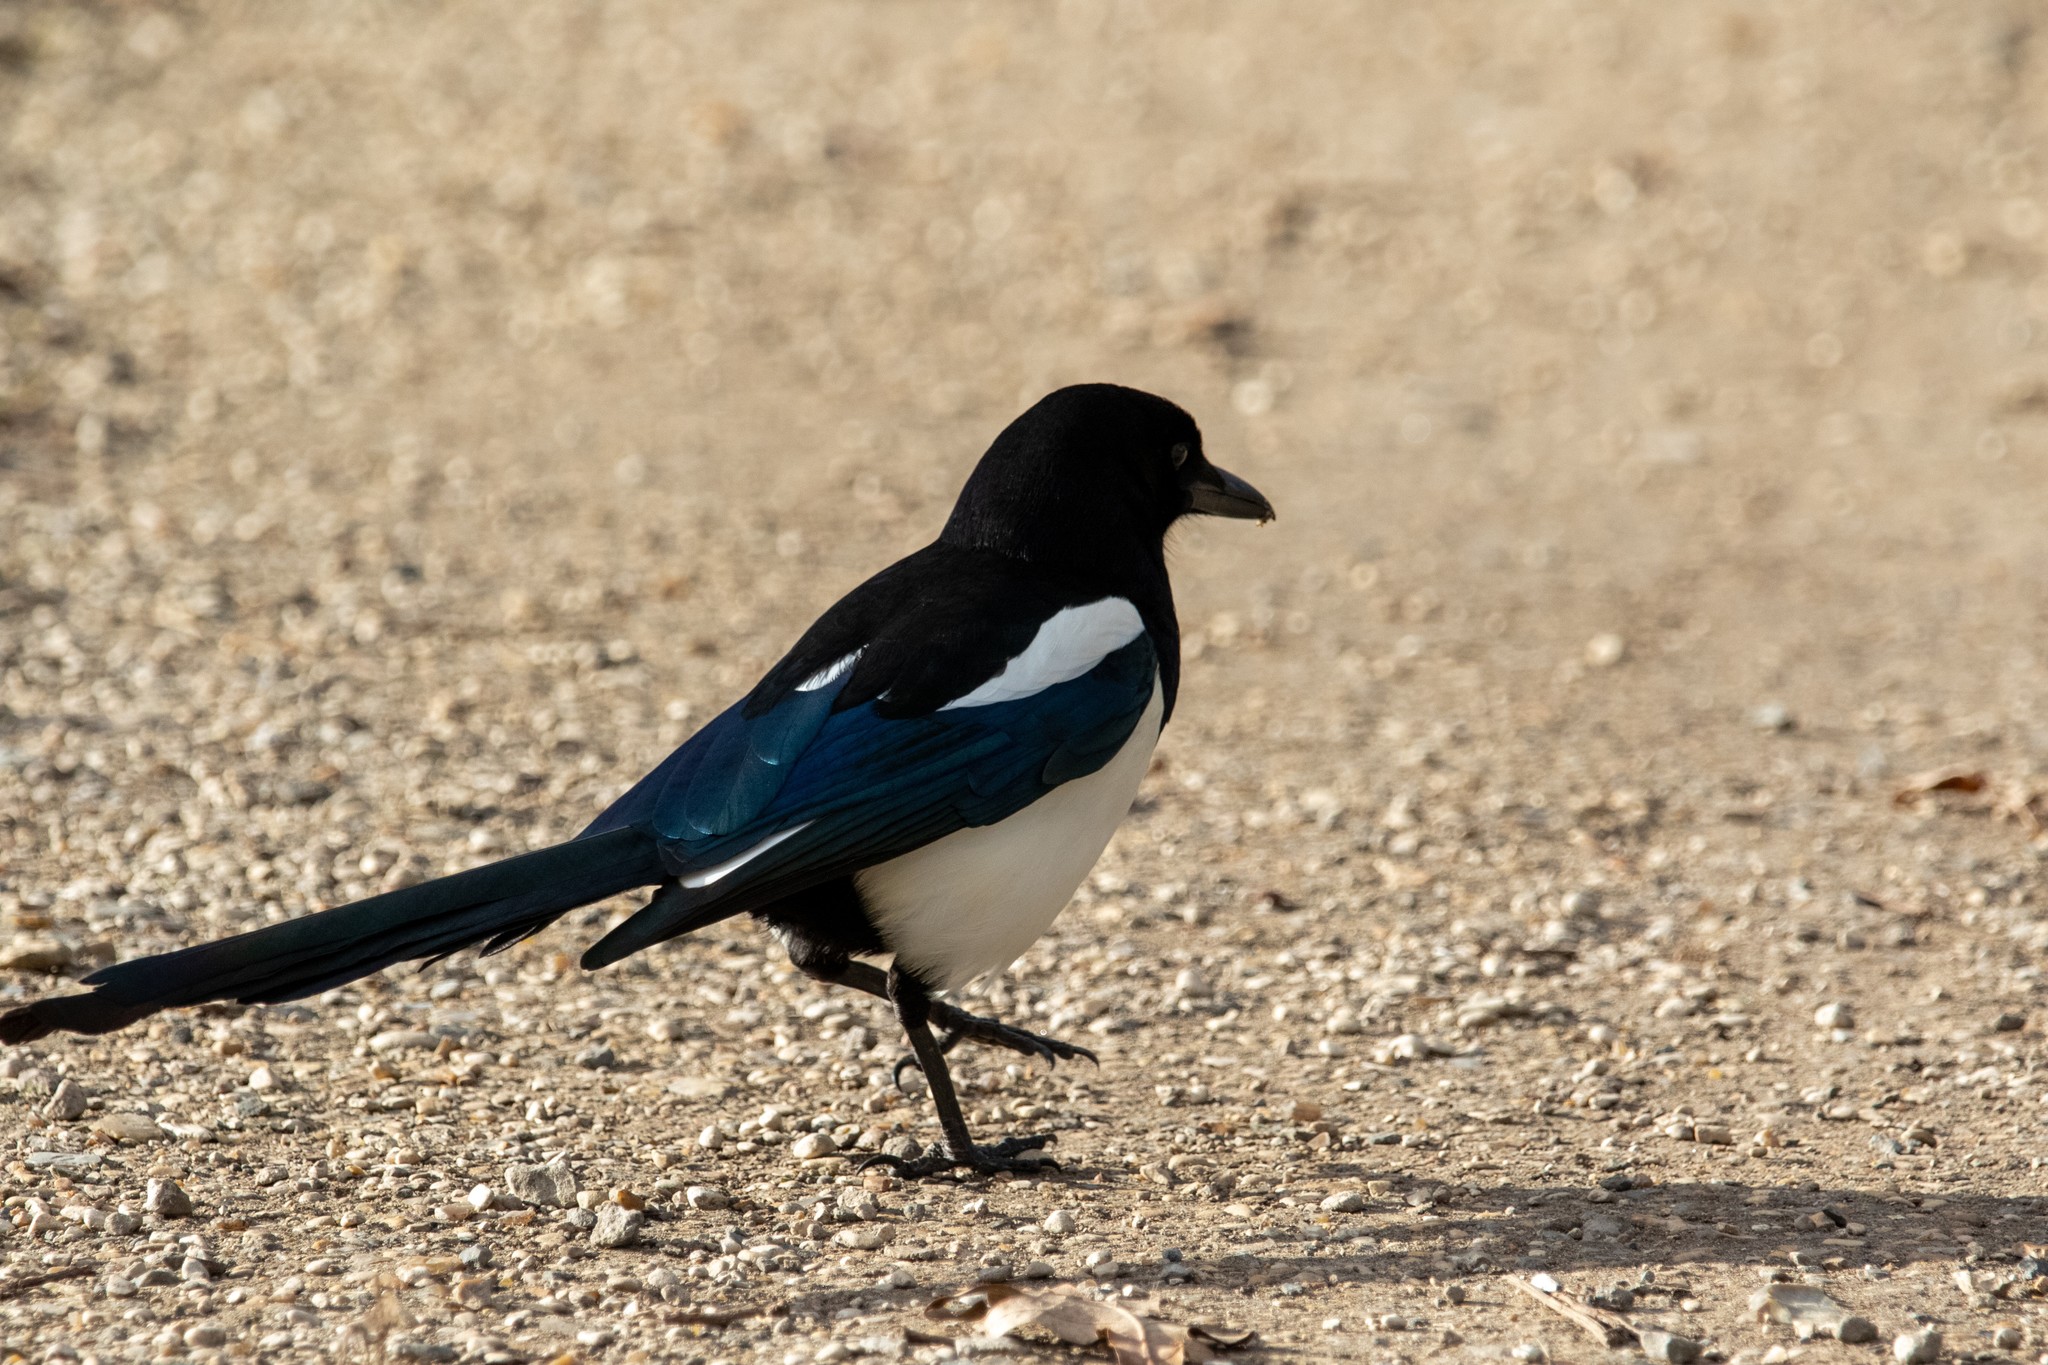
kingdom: Animalia
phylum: Chordata
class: Aves
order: Passeriformes
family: Corvidae
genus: Pica
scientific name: Pica pica
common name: Eurasian magpie
